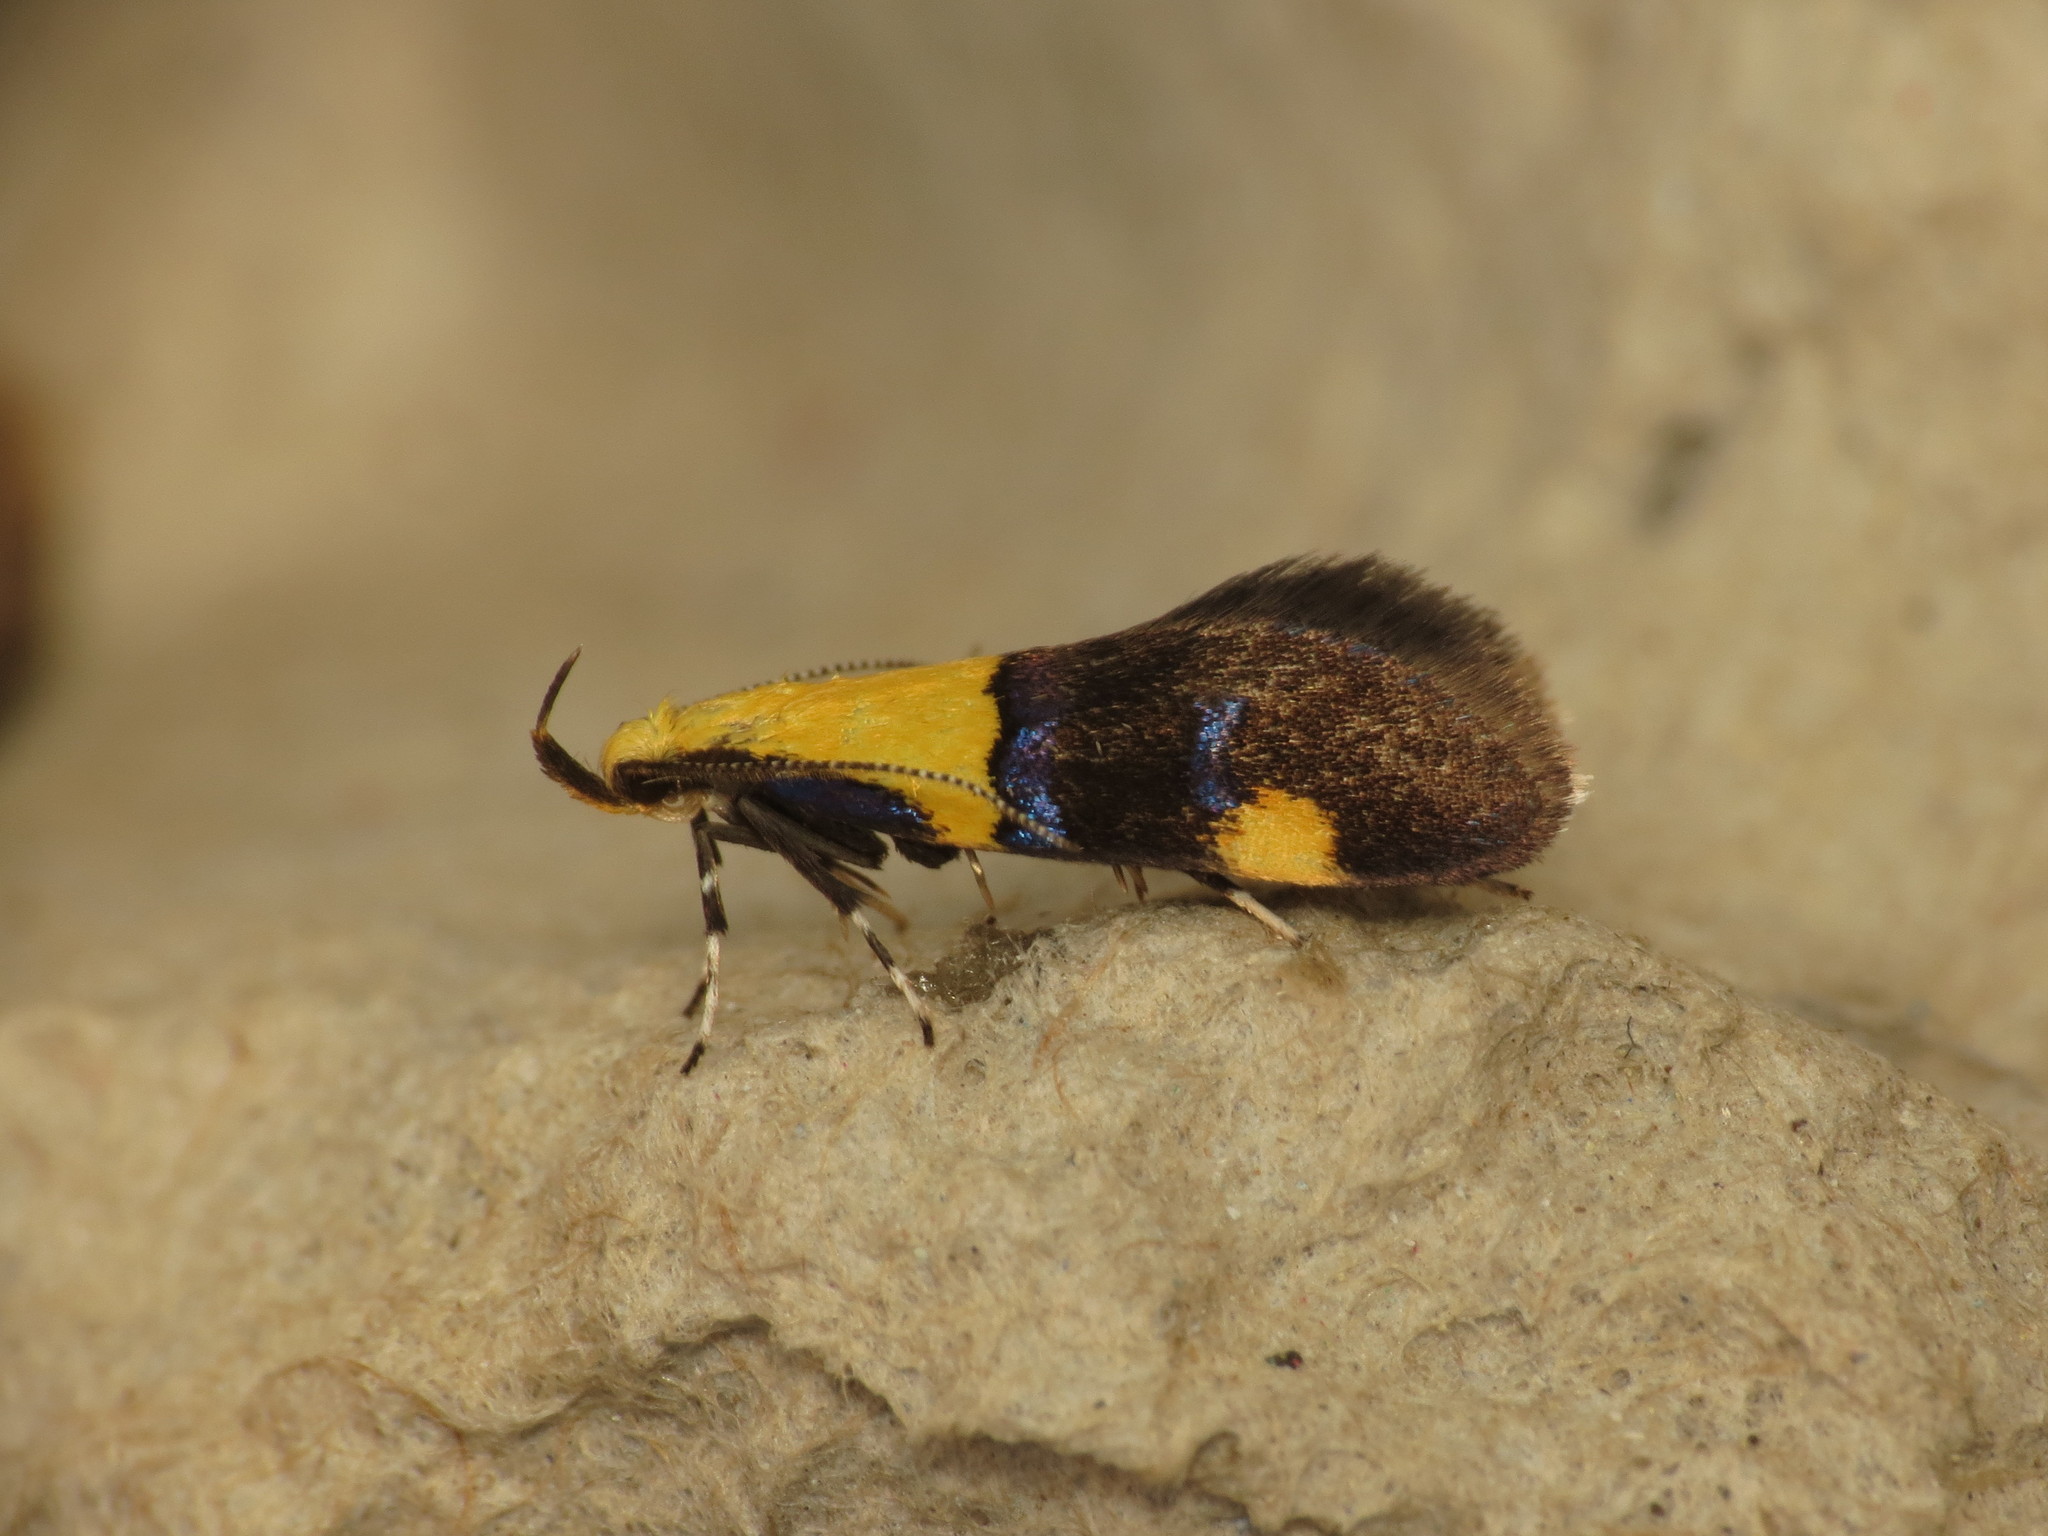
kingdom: Animalia
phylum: Arthropoda
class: Insecta
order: Lepidoptera
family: Oecophoridae
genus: Oecophora
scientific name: Oecophora bractella
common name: Gold-base tubic
